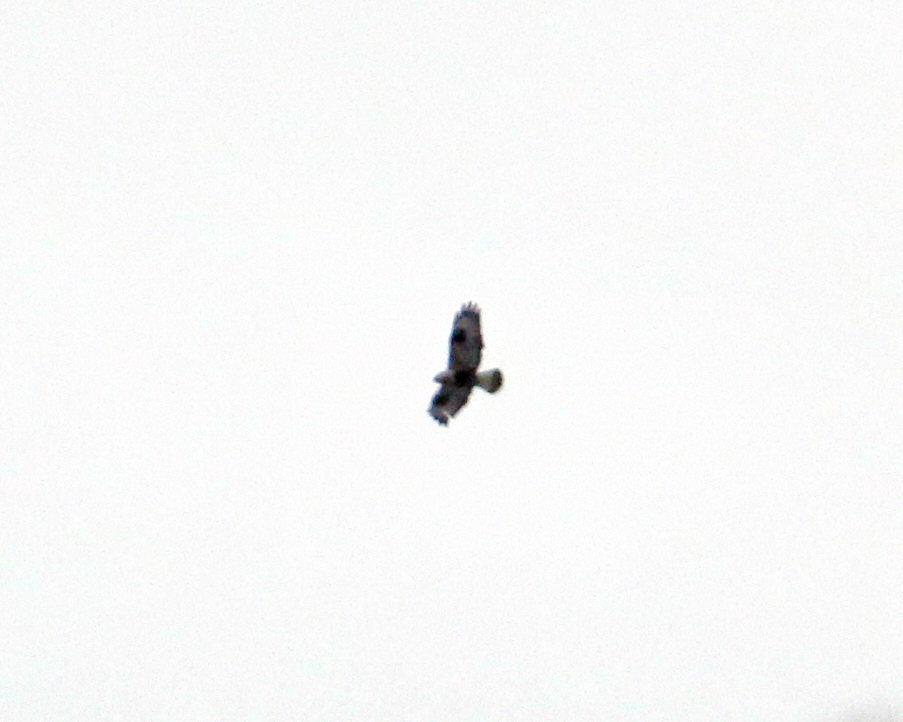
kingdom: Animalia
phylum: Chordata
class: Aves
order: Accipitriformes
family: Accipitridae
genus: Buteo
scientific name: Buteo lagopus
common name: Rough-legged buzzard
